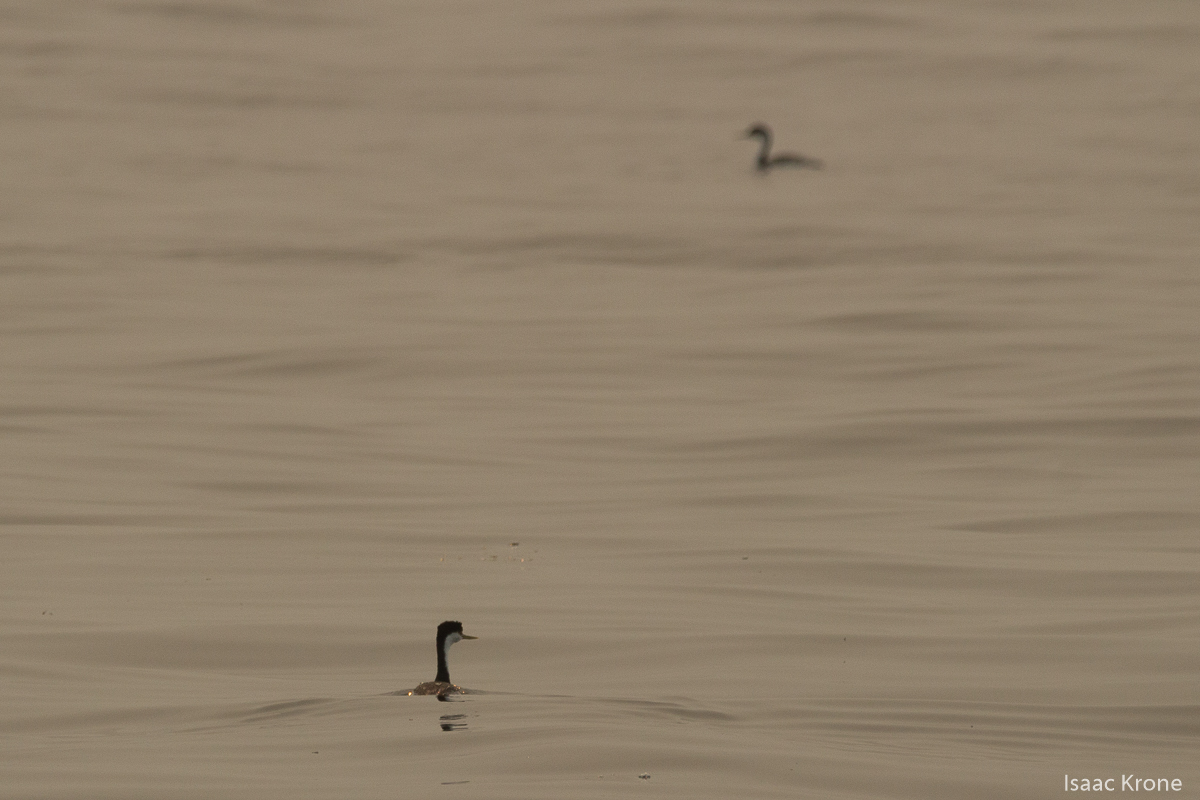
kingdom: Animalia
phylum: Chordata
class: Aves
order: Podicipediformes
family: Podicipedidae
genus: Aechmophorus
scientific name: Aechmophorus occidentalis
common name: Western grebe
